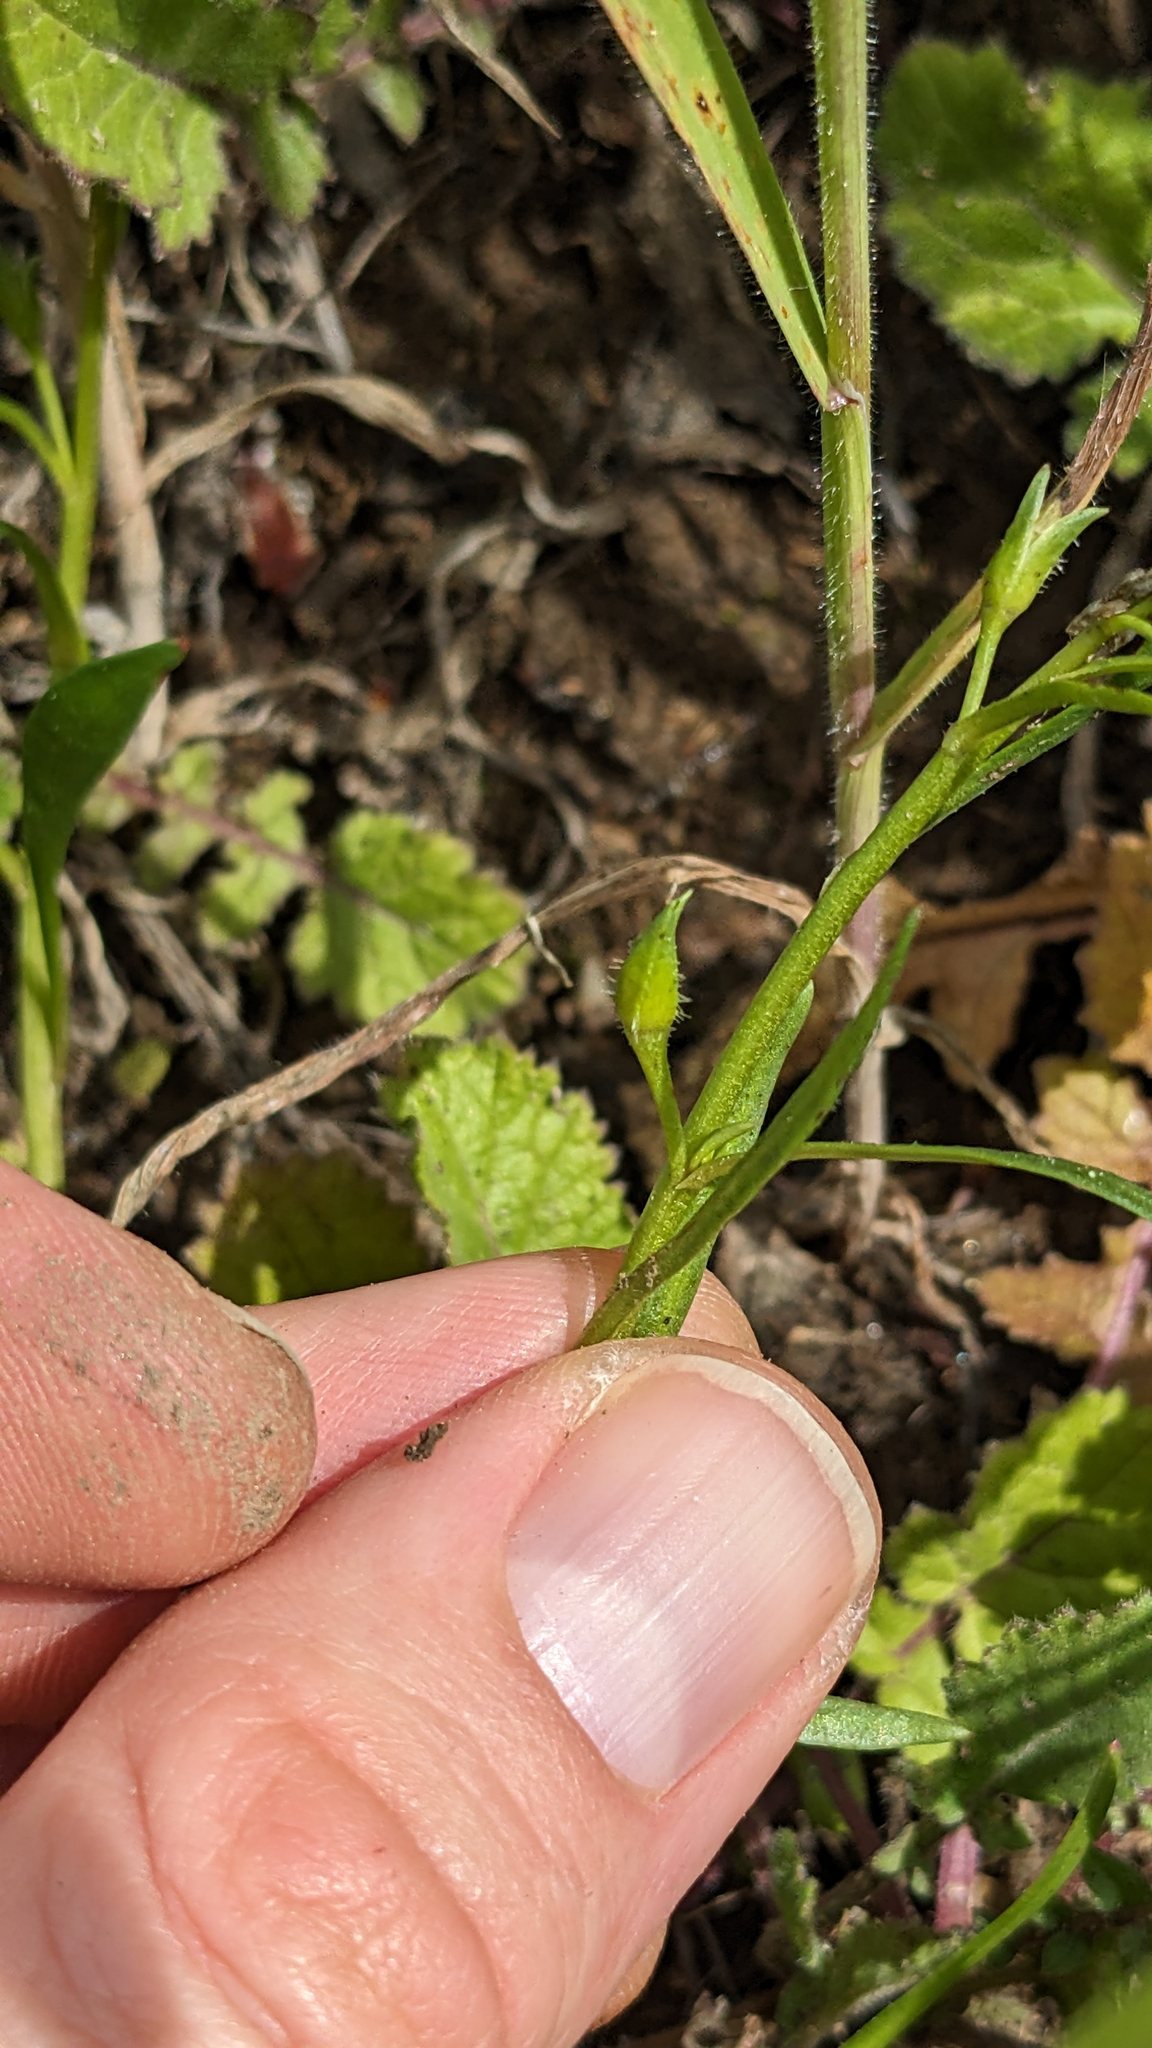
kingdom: Plantae
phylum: Tracheophyta
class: Magnoliopsida
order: Caryophyllales
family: Montiaceae
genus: Calandrinia
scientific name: Calandrinia menziesii
